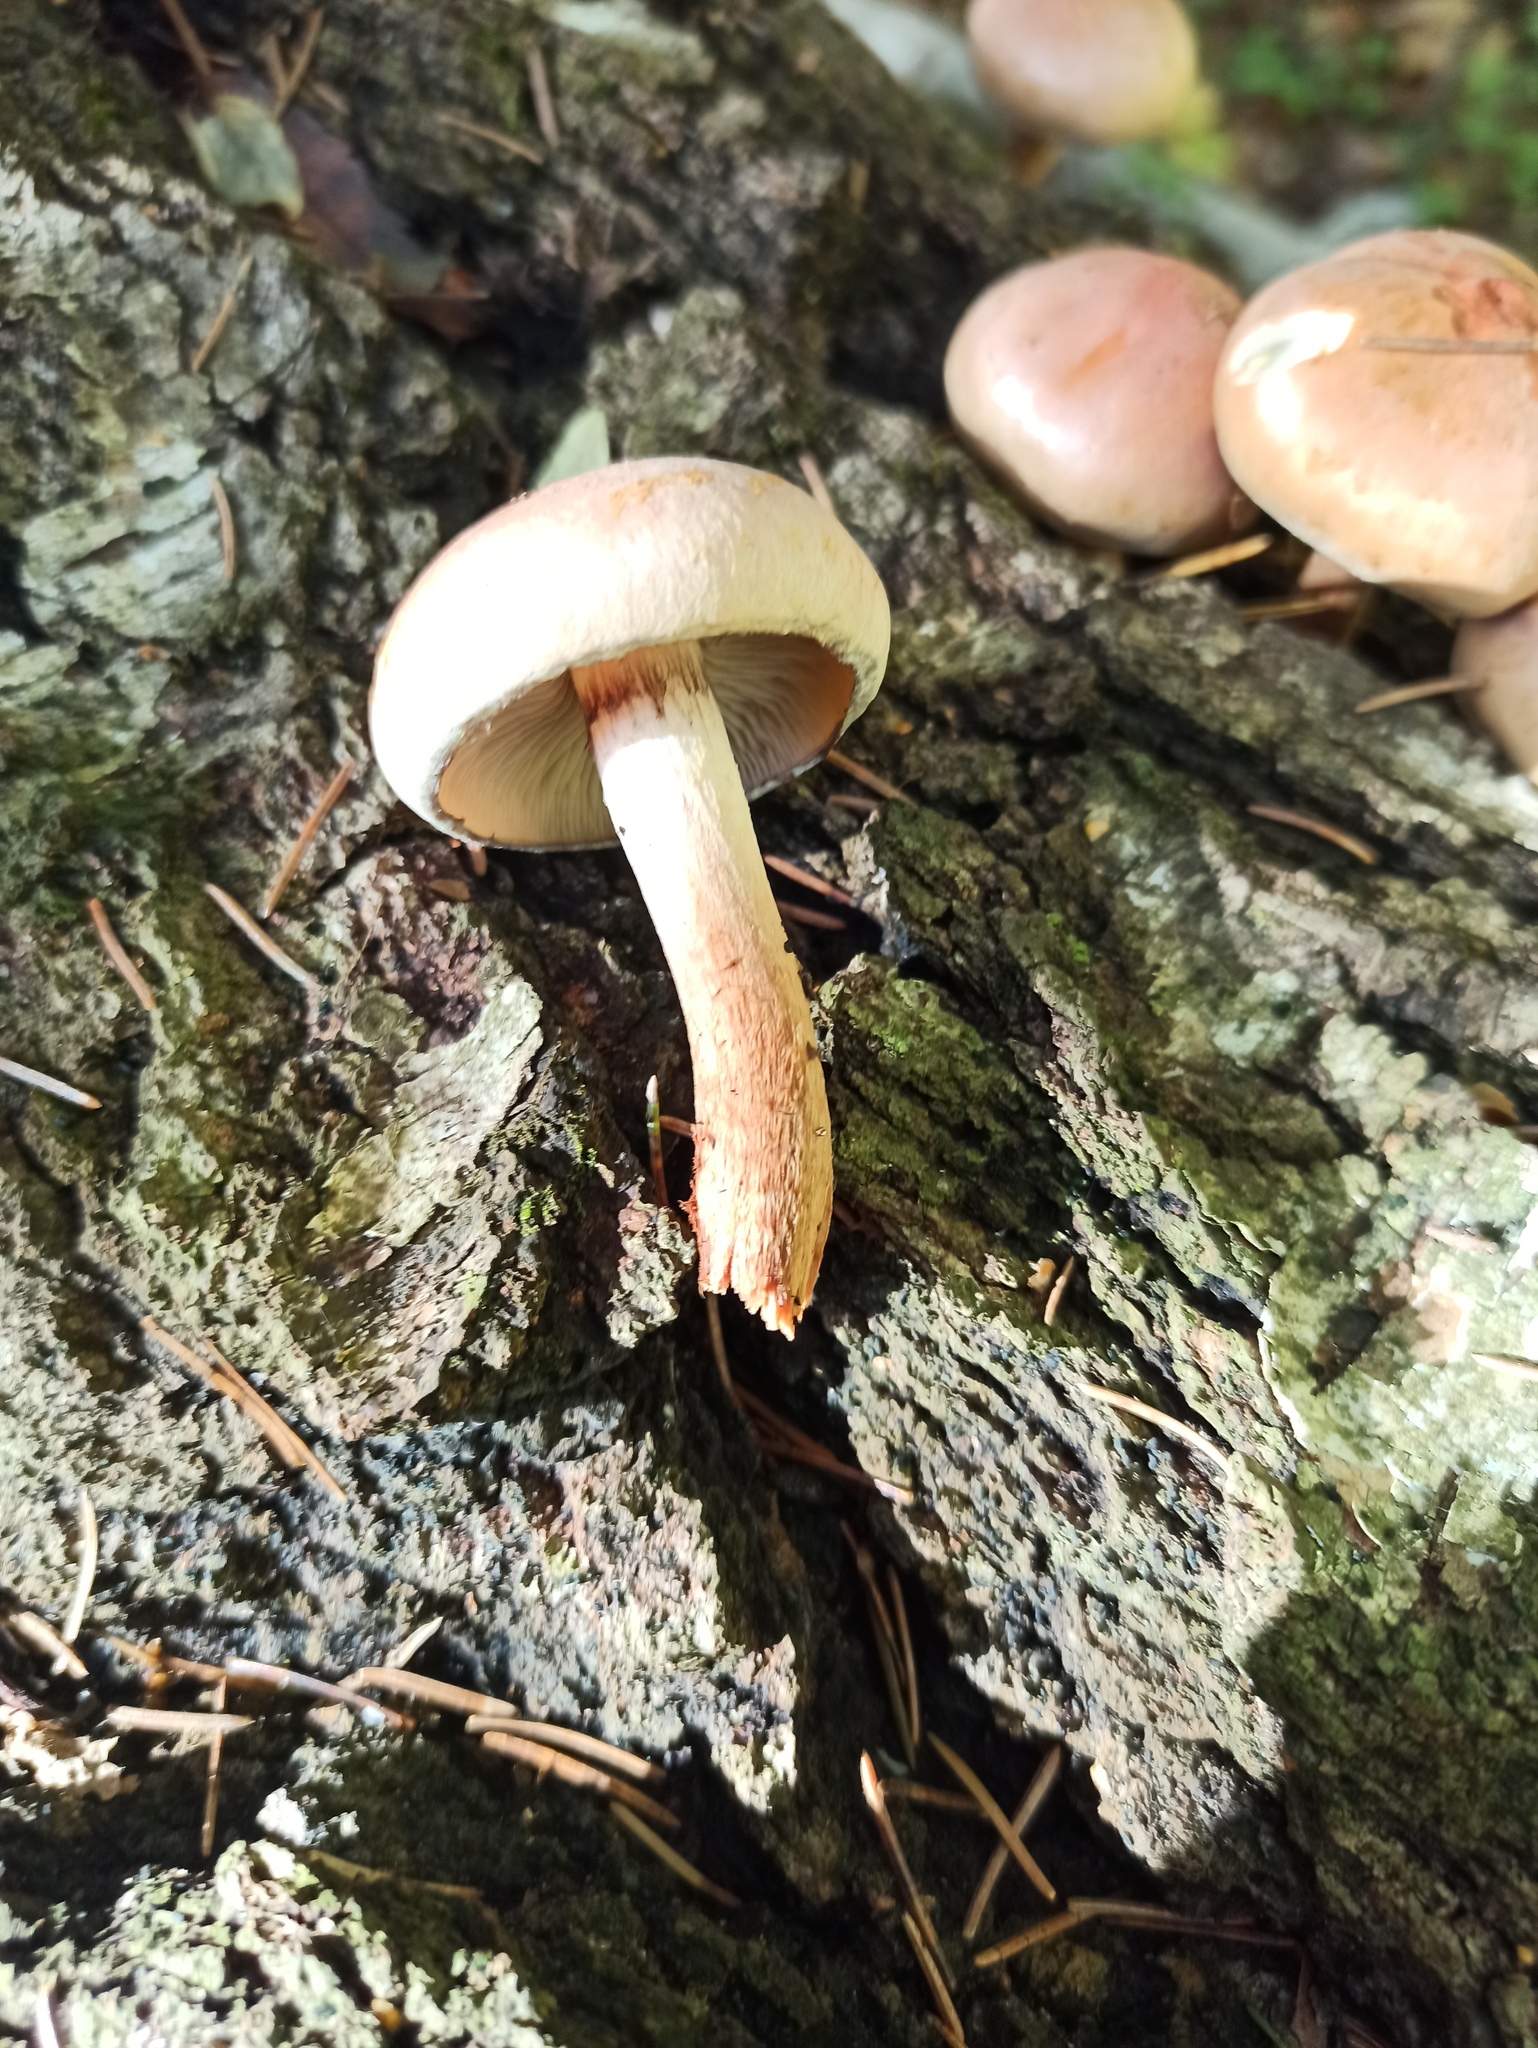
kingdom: Fungi
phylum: Basidiomycota
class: Agaricomycetes
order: Agaricales
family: Strophariaceae
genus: Hypholoma
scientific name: Hypholoma lateritium
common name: Brick caps
